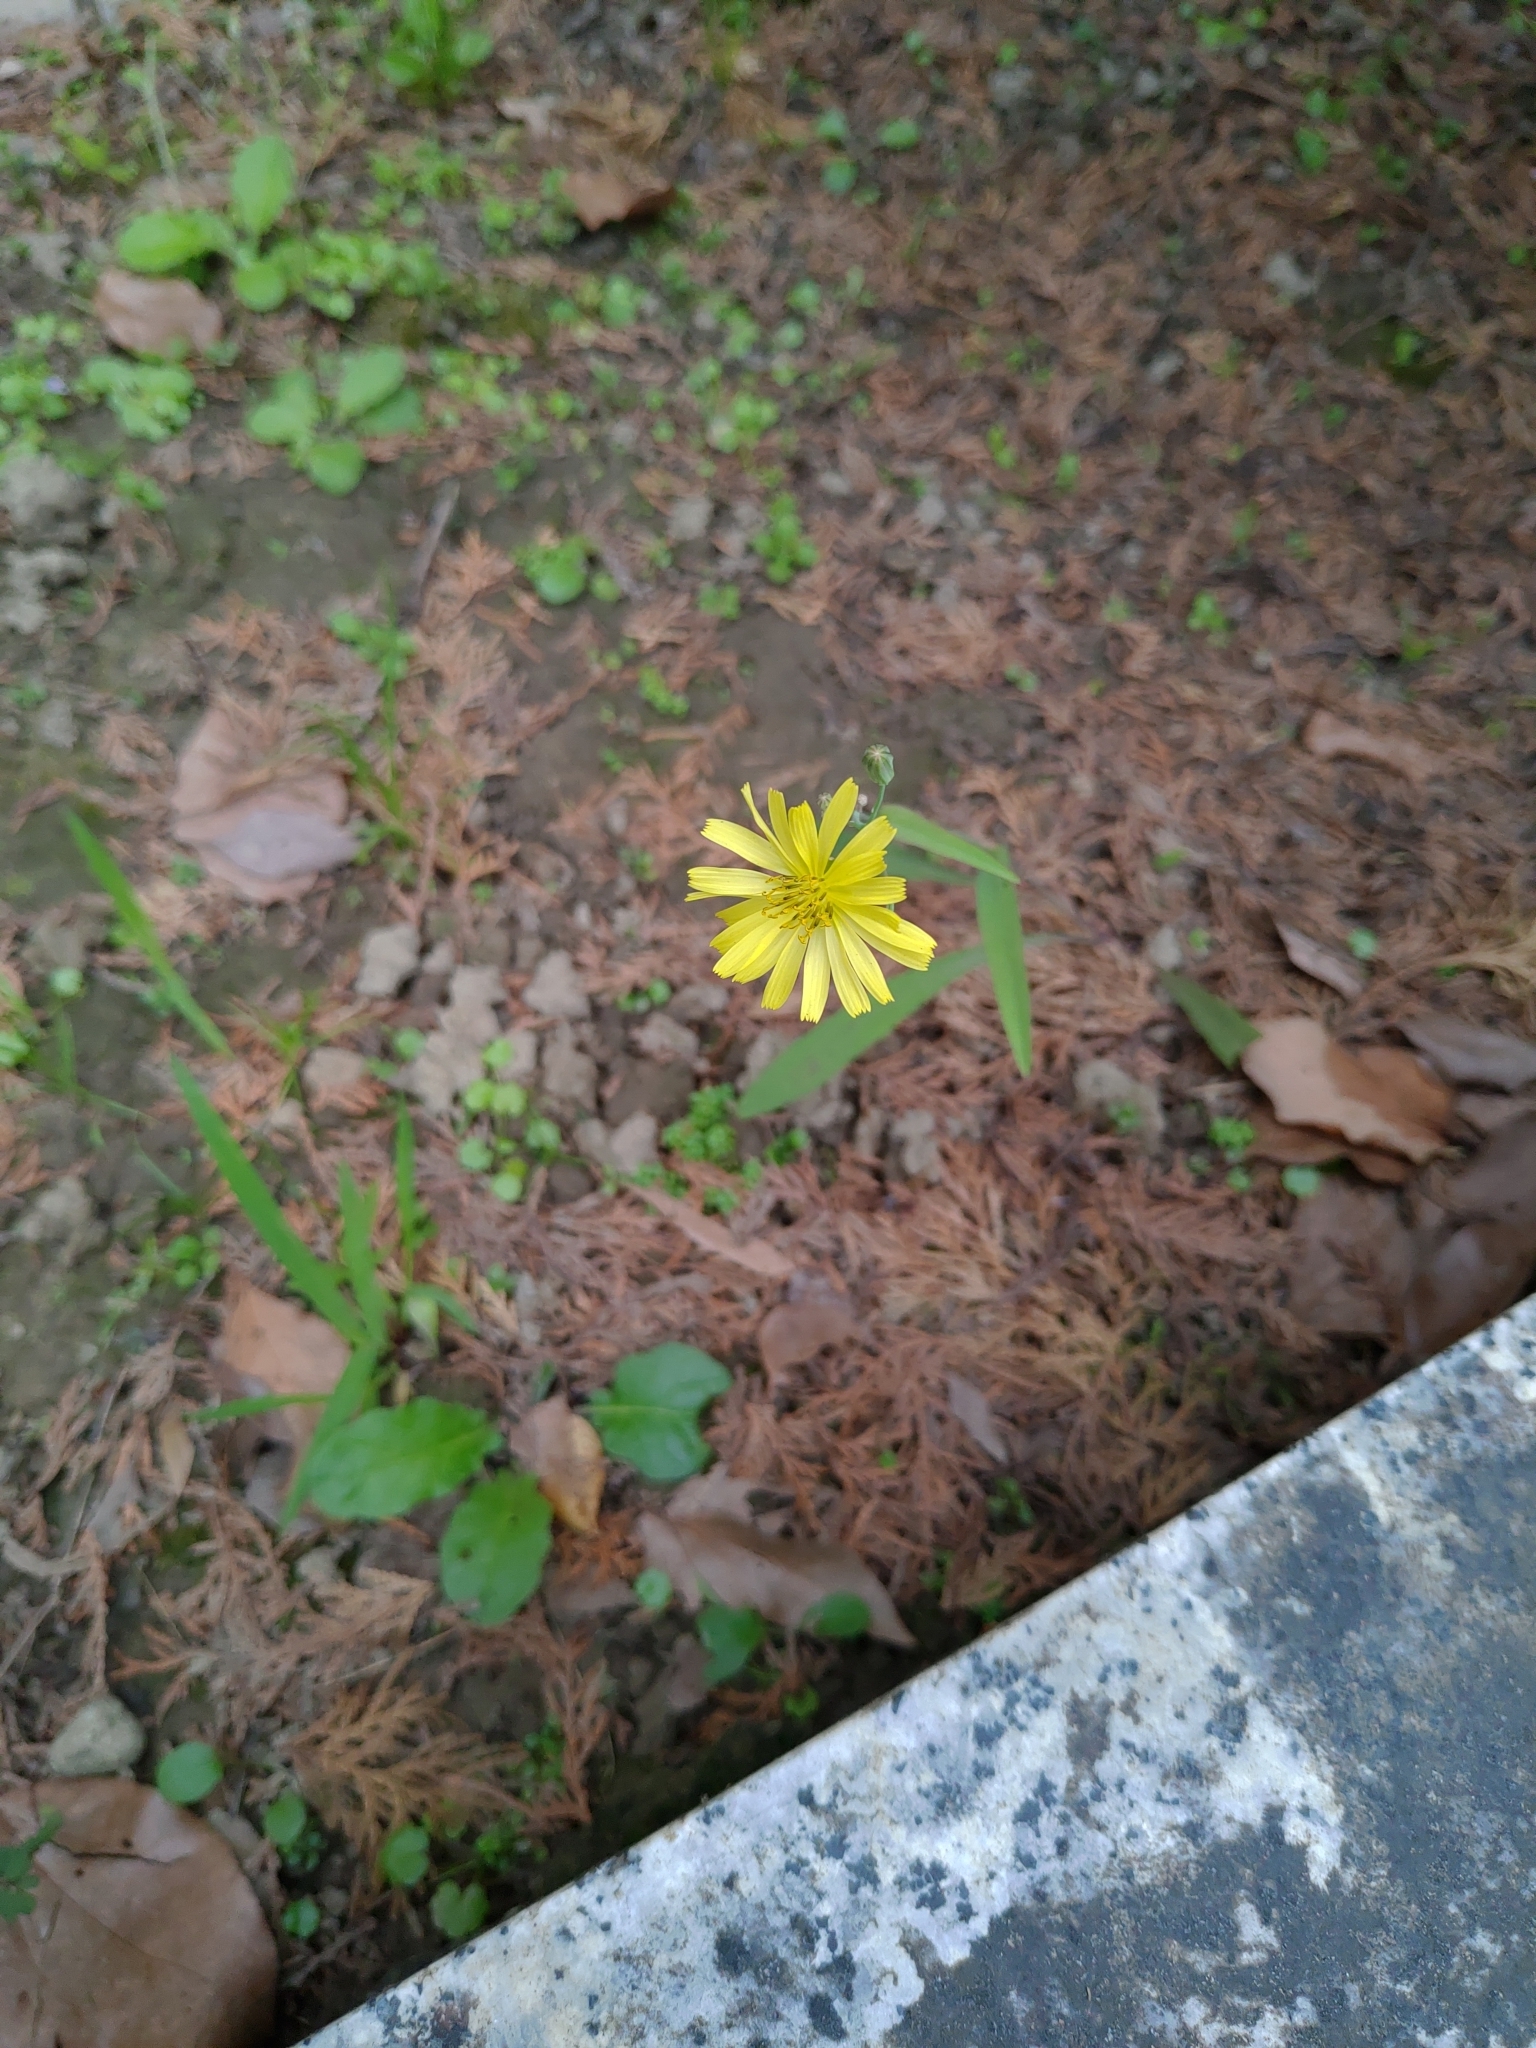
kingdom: Plantae
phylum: Tracheophyta
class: Magnoliopsida
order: Asterales
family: Asteraceae
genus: Ixeris
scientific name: Ixeris chinensis
